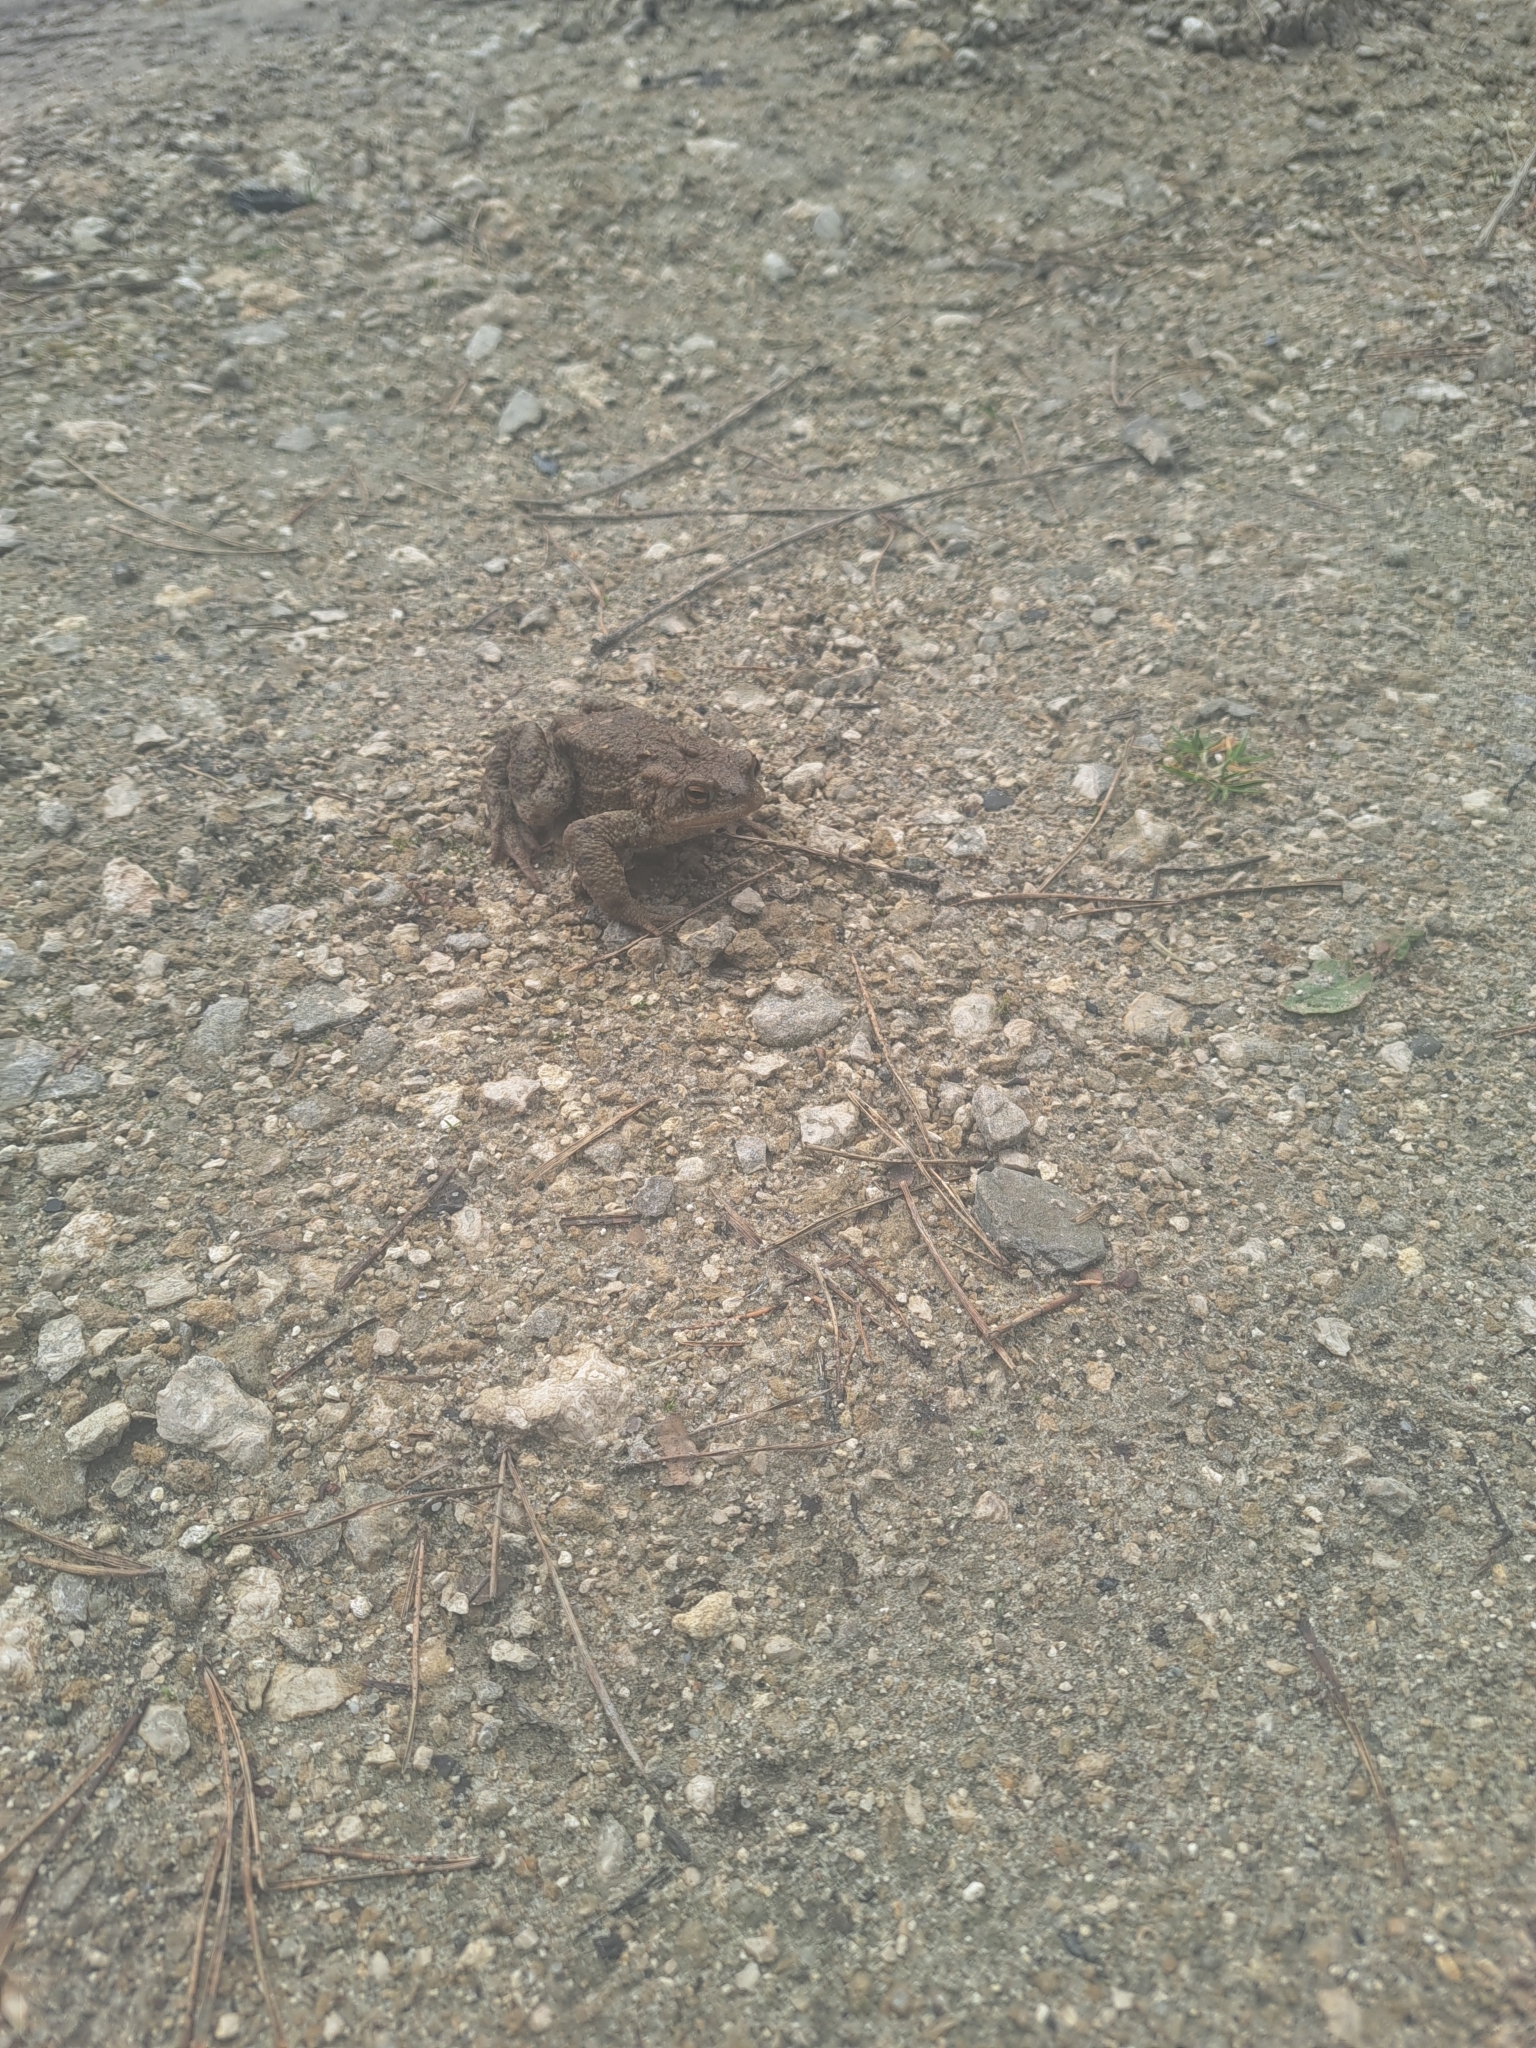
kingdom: Animalia
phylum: Chordata
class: Amphibia
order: Anura
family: Bufonidae
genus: Bufo
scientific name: Bufo bufo
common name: Common toad
